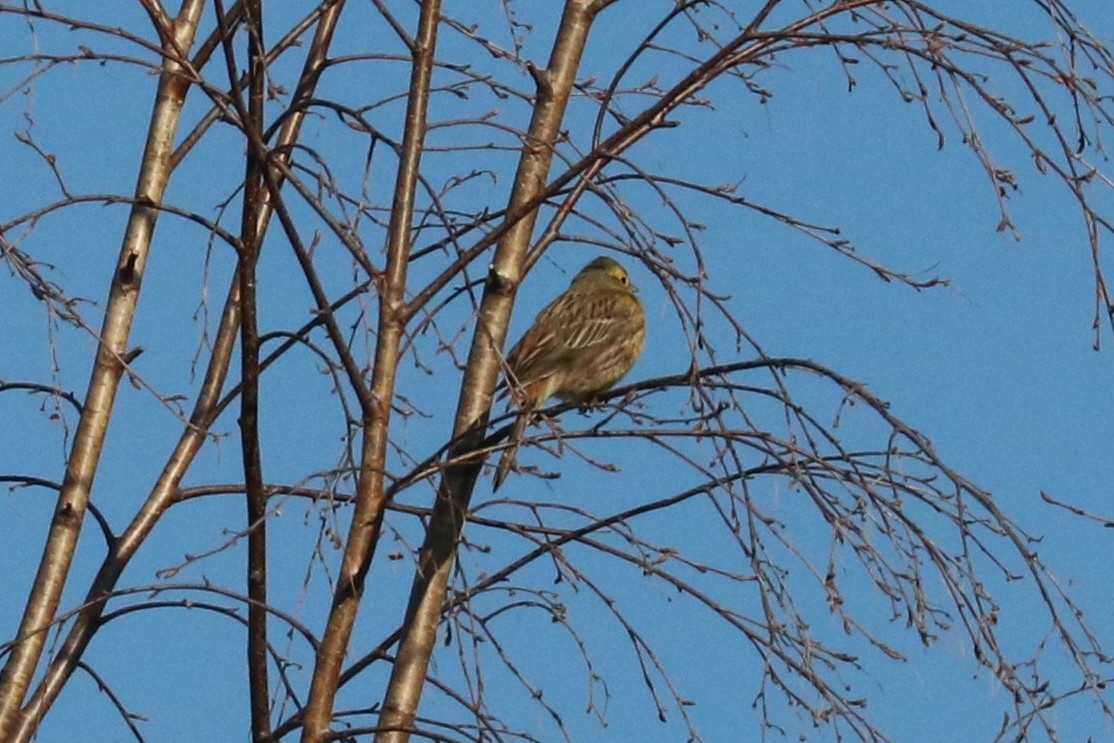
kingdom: Animalia
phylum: Chordata
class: Aves
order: Passeriformes
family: Emberizidae
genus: Emberiza
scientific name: Emberiza citrinella
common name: Yellowhammer
